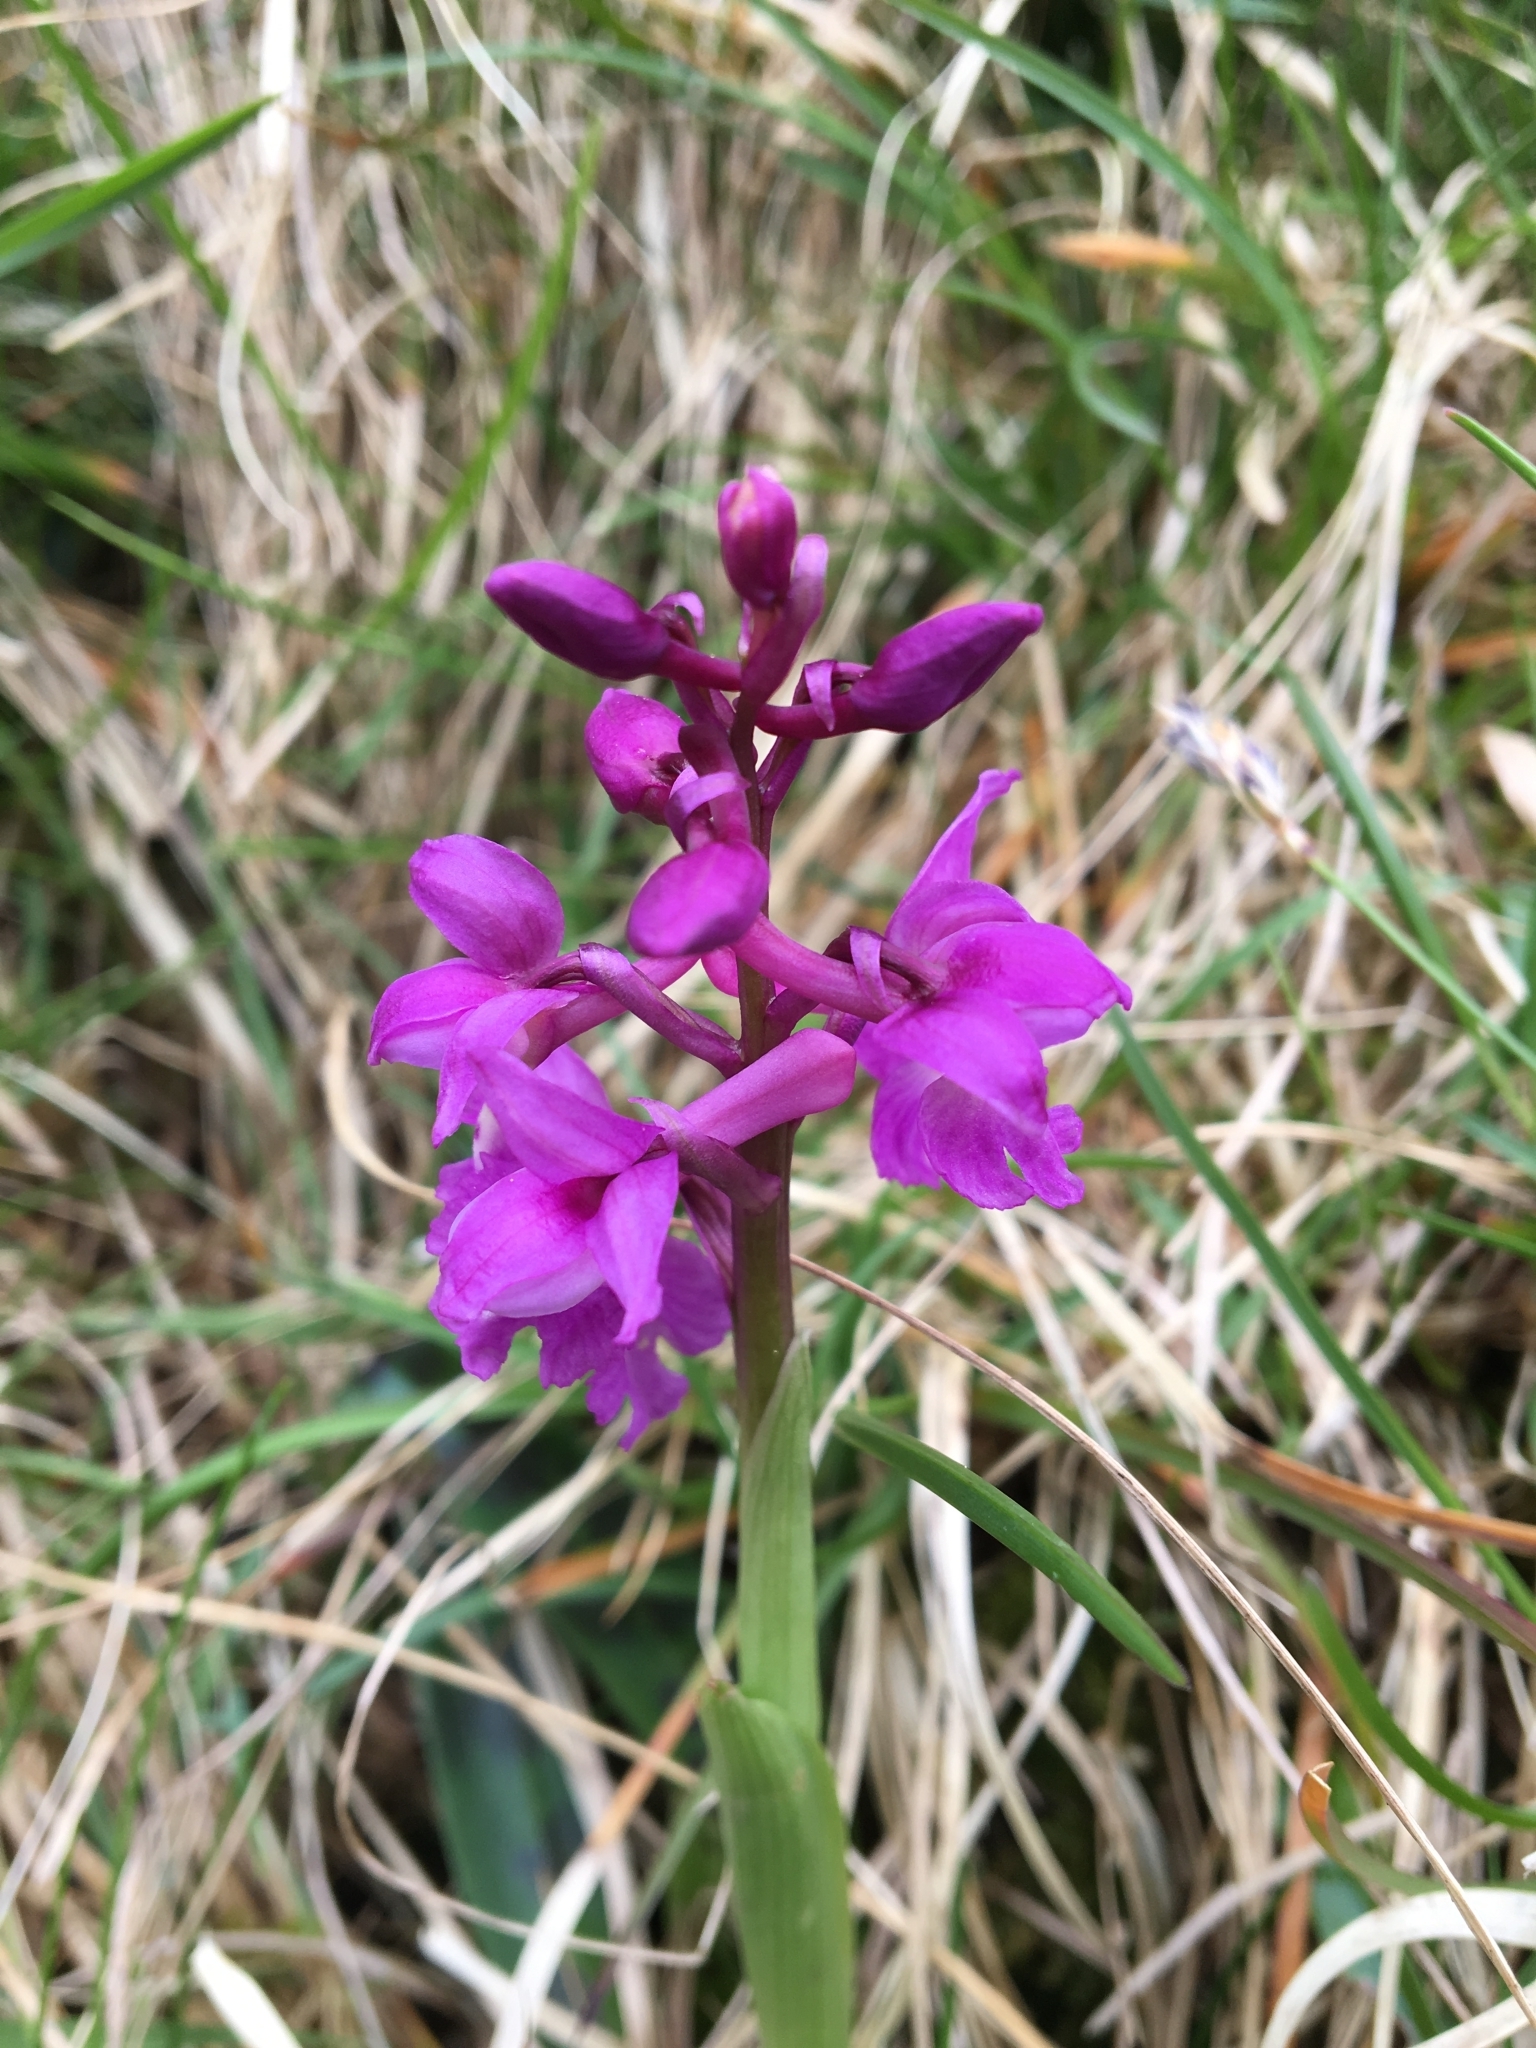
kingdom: Plantae
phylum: Tracheophyta
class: Liliopsida
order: Asparagales
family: Orchidaceae
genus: Orchis
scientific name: Orchis mascula
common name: Early-purple orchid
